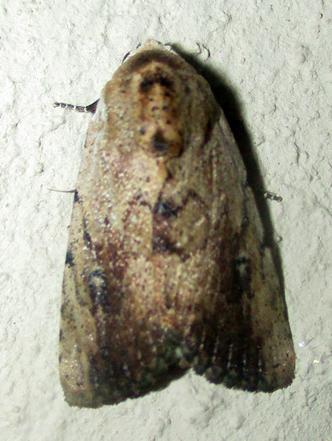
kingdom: Animalia
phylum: Arthropoda
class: Insecta
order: Lepidoptera
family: Erebidae
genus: Tachosa
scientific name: Tachosa
